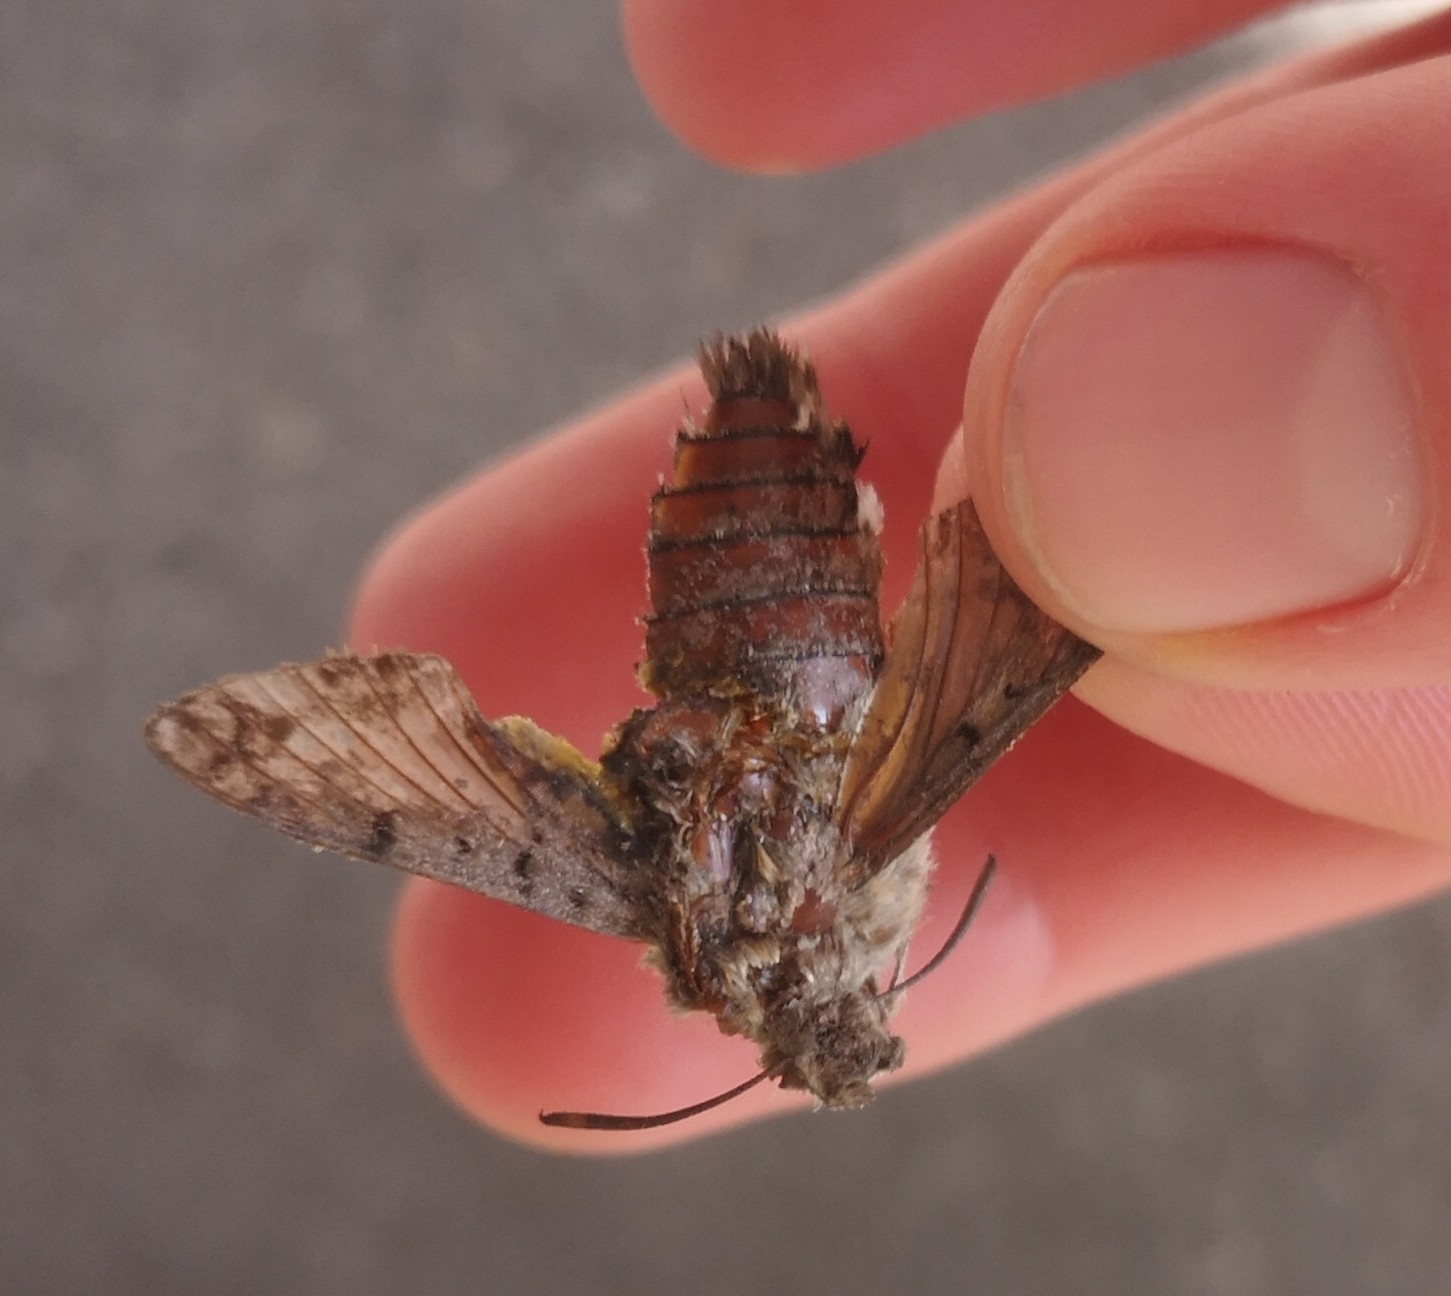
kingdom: Animalia
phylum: Arthropoda
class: Insecta
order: Lepidoptera
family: Sphingidae
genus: Macroglossum
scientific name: Macroglossum stellatarum
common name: Humming-bird hawk-moth
